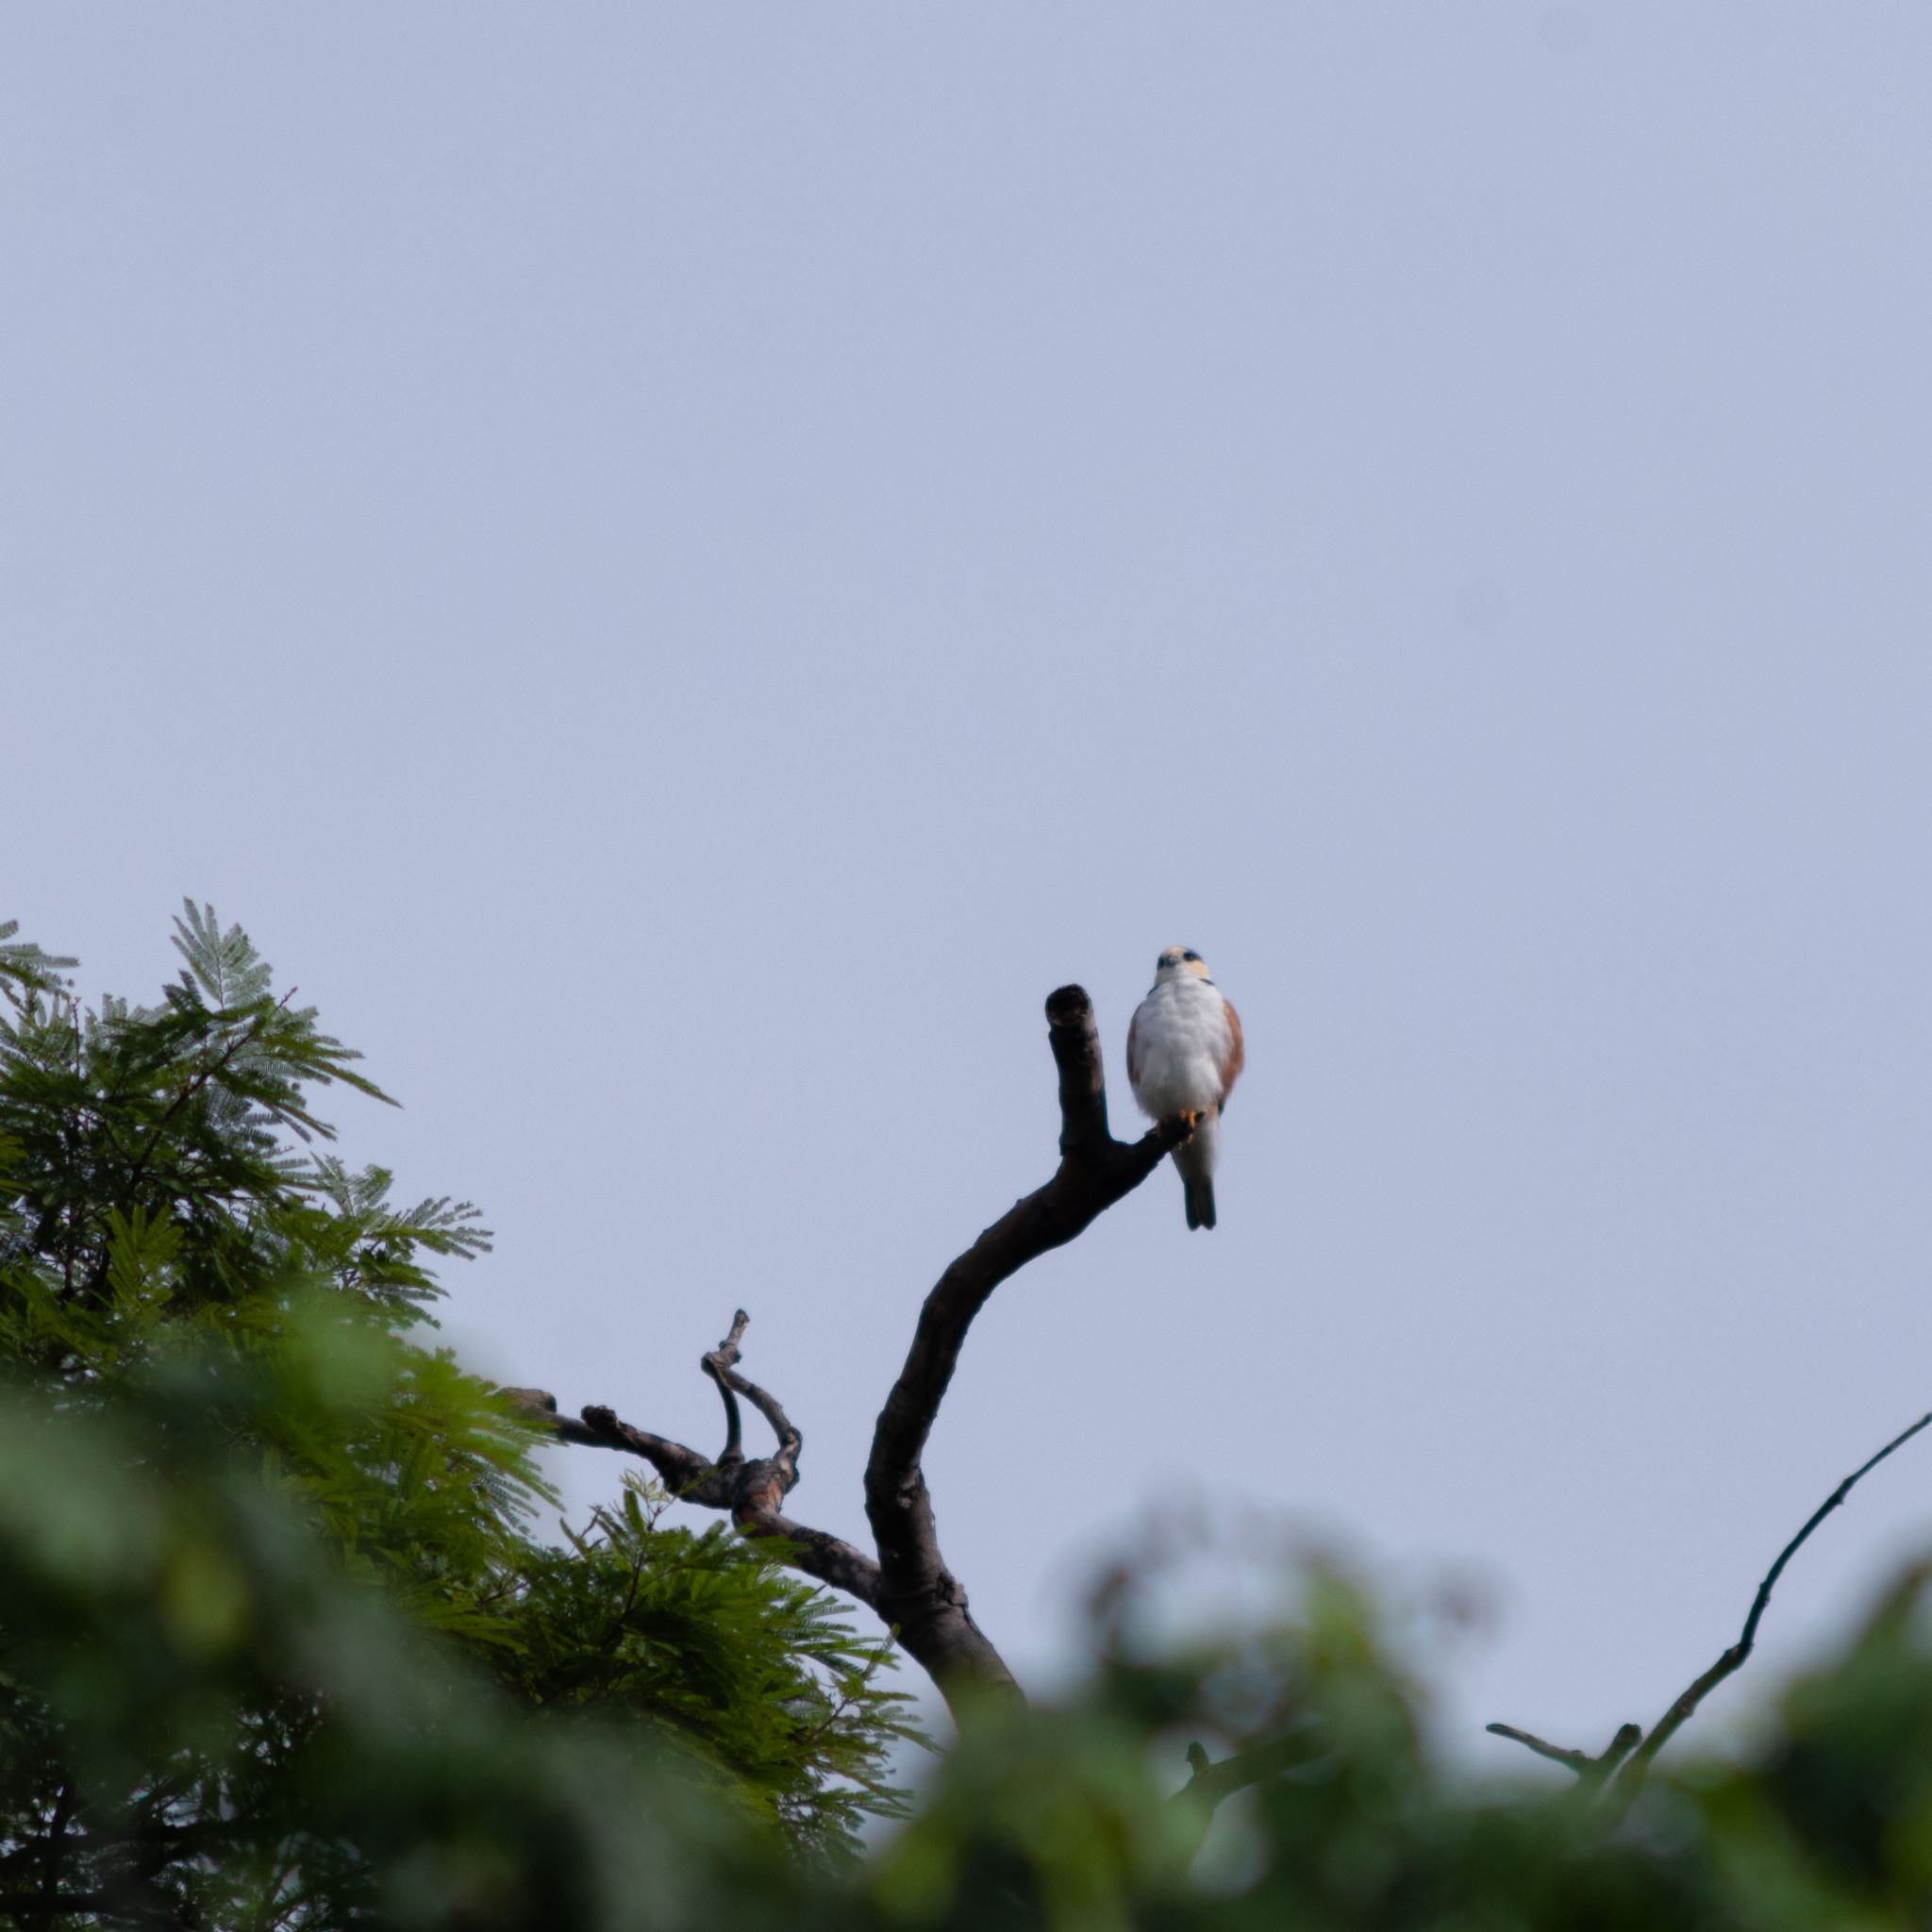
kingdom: Animalia
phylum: Chordata
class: Aves
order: Accipitriformes
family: Accipitridae
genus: Gampsonyx
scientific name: Gampsonyx swainsonii
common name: Pearl kite
